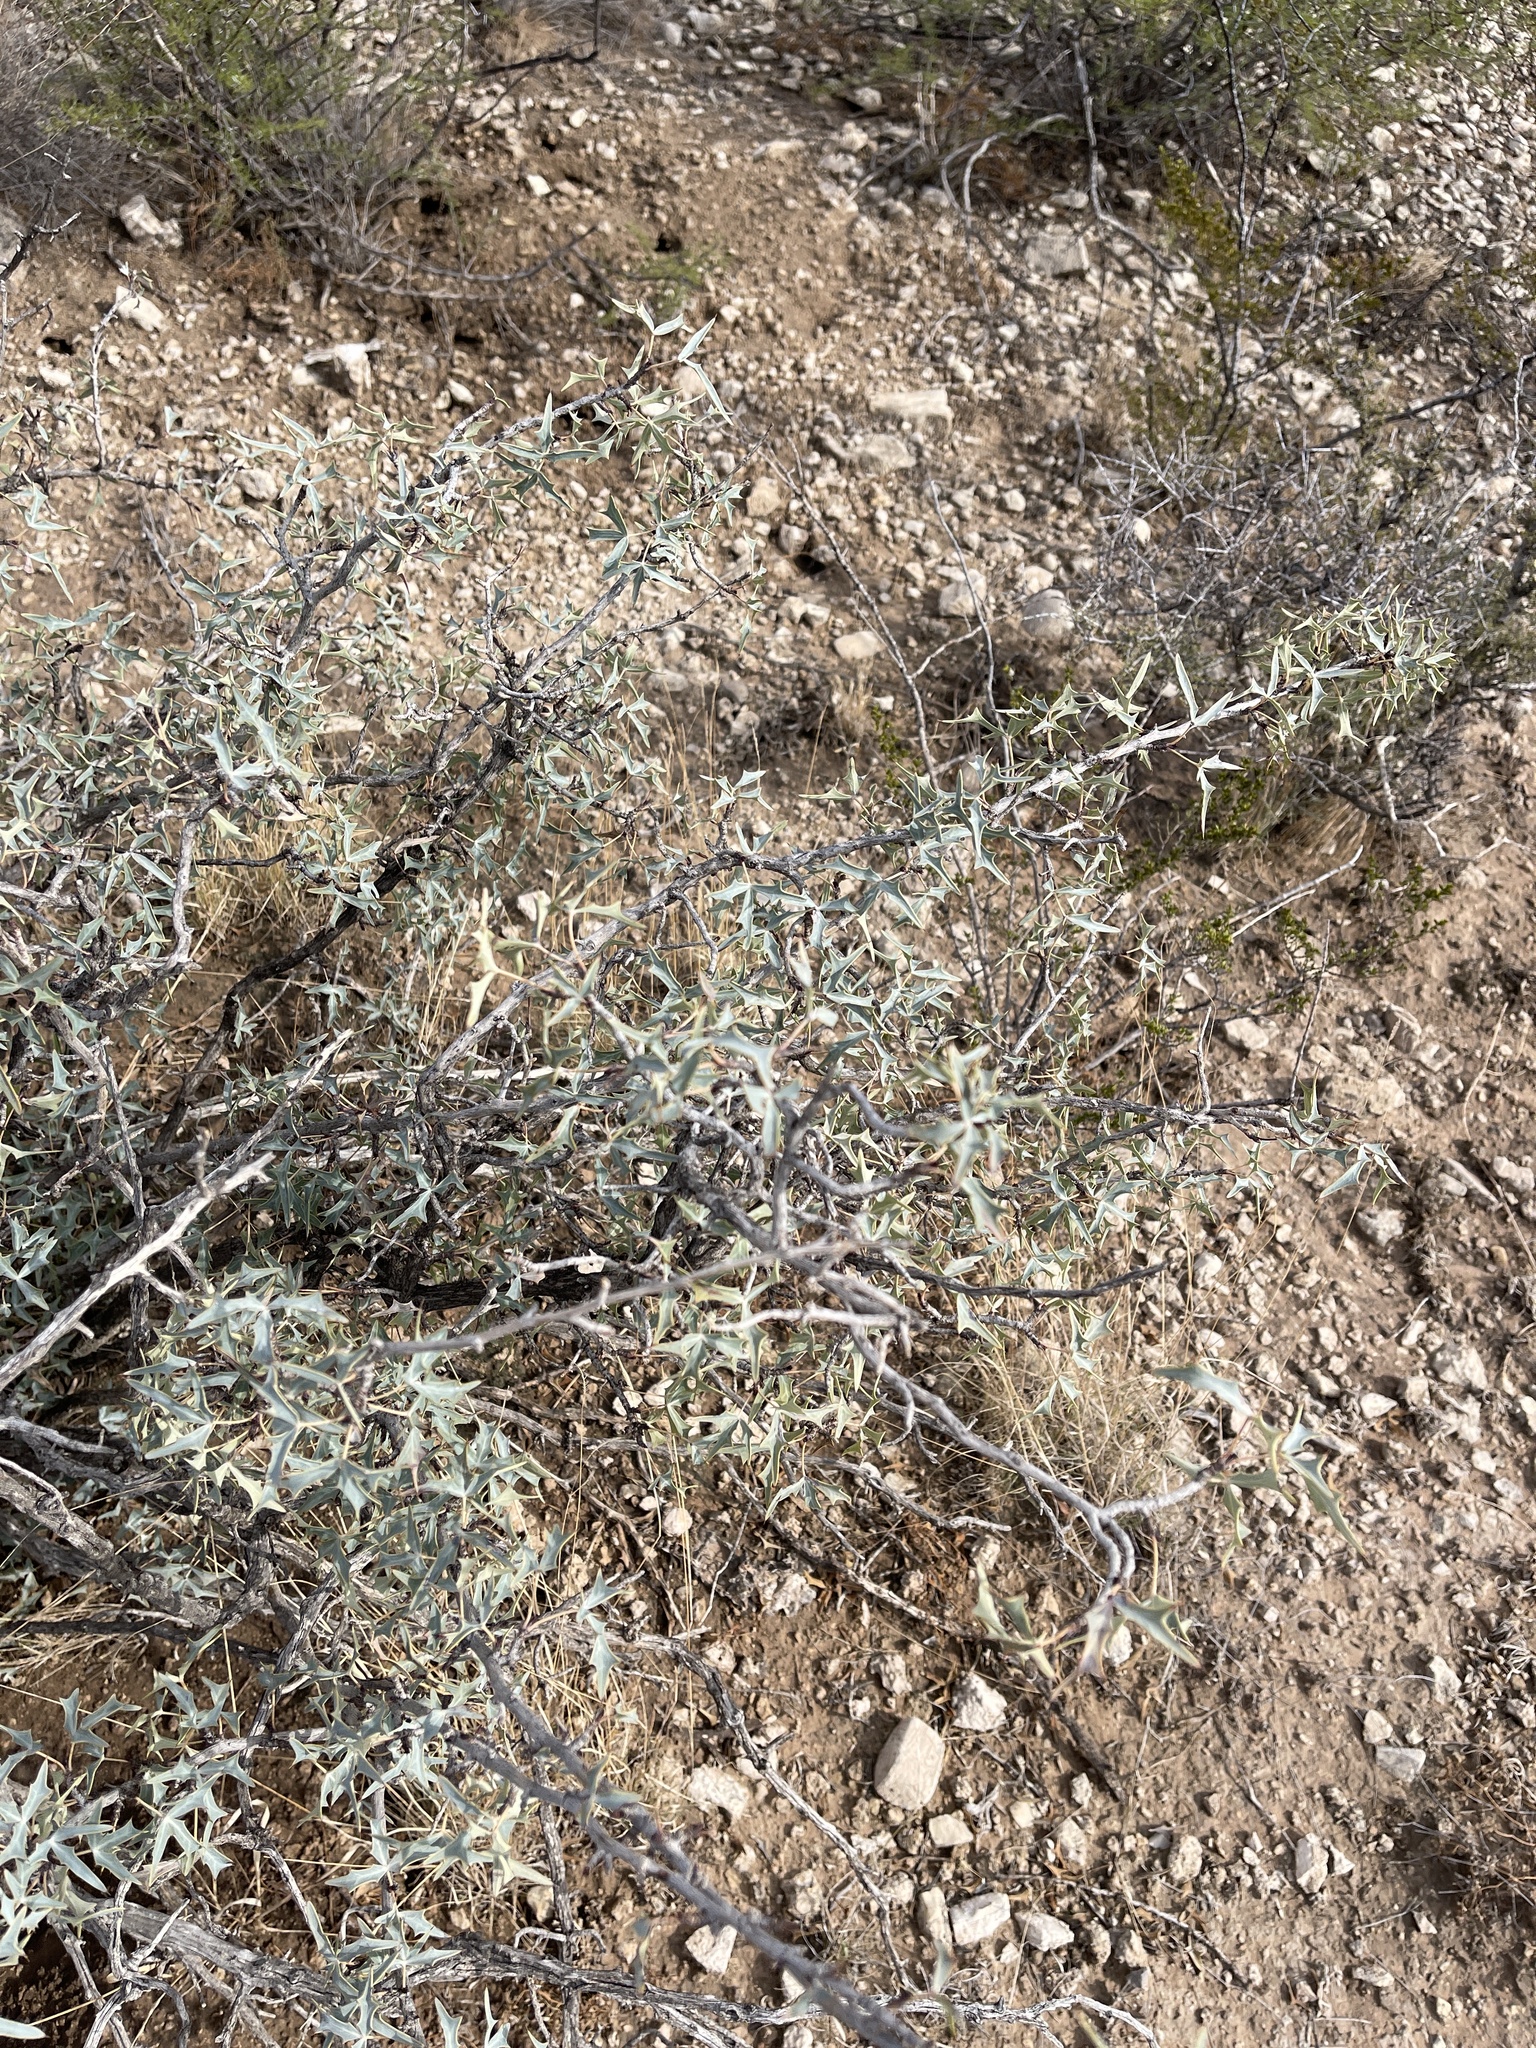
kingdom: Plantae
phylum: Tracheophyta
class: Magnoliopsida
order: Ranunculales
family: Berberidaceae
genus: Alloberberis
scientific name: Alloberberis trifoliolata
